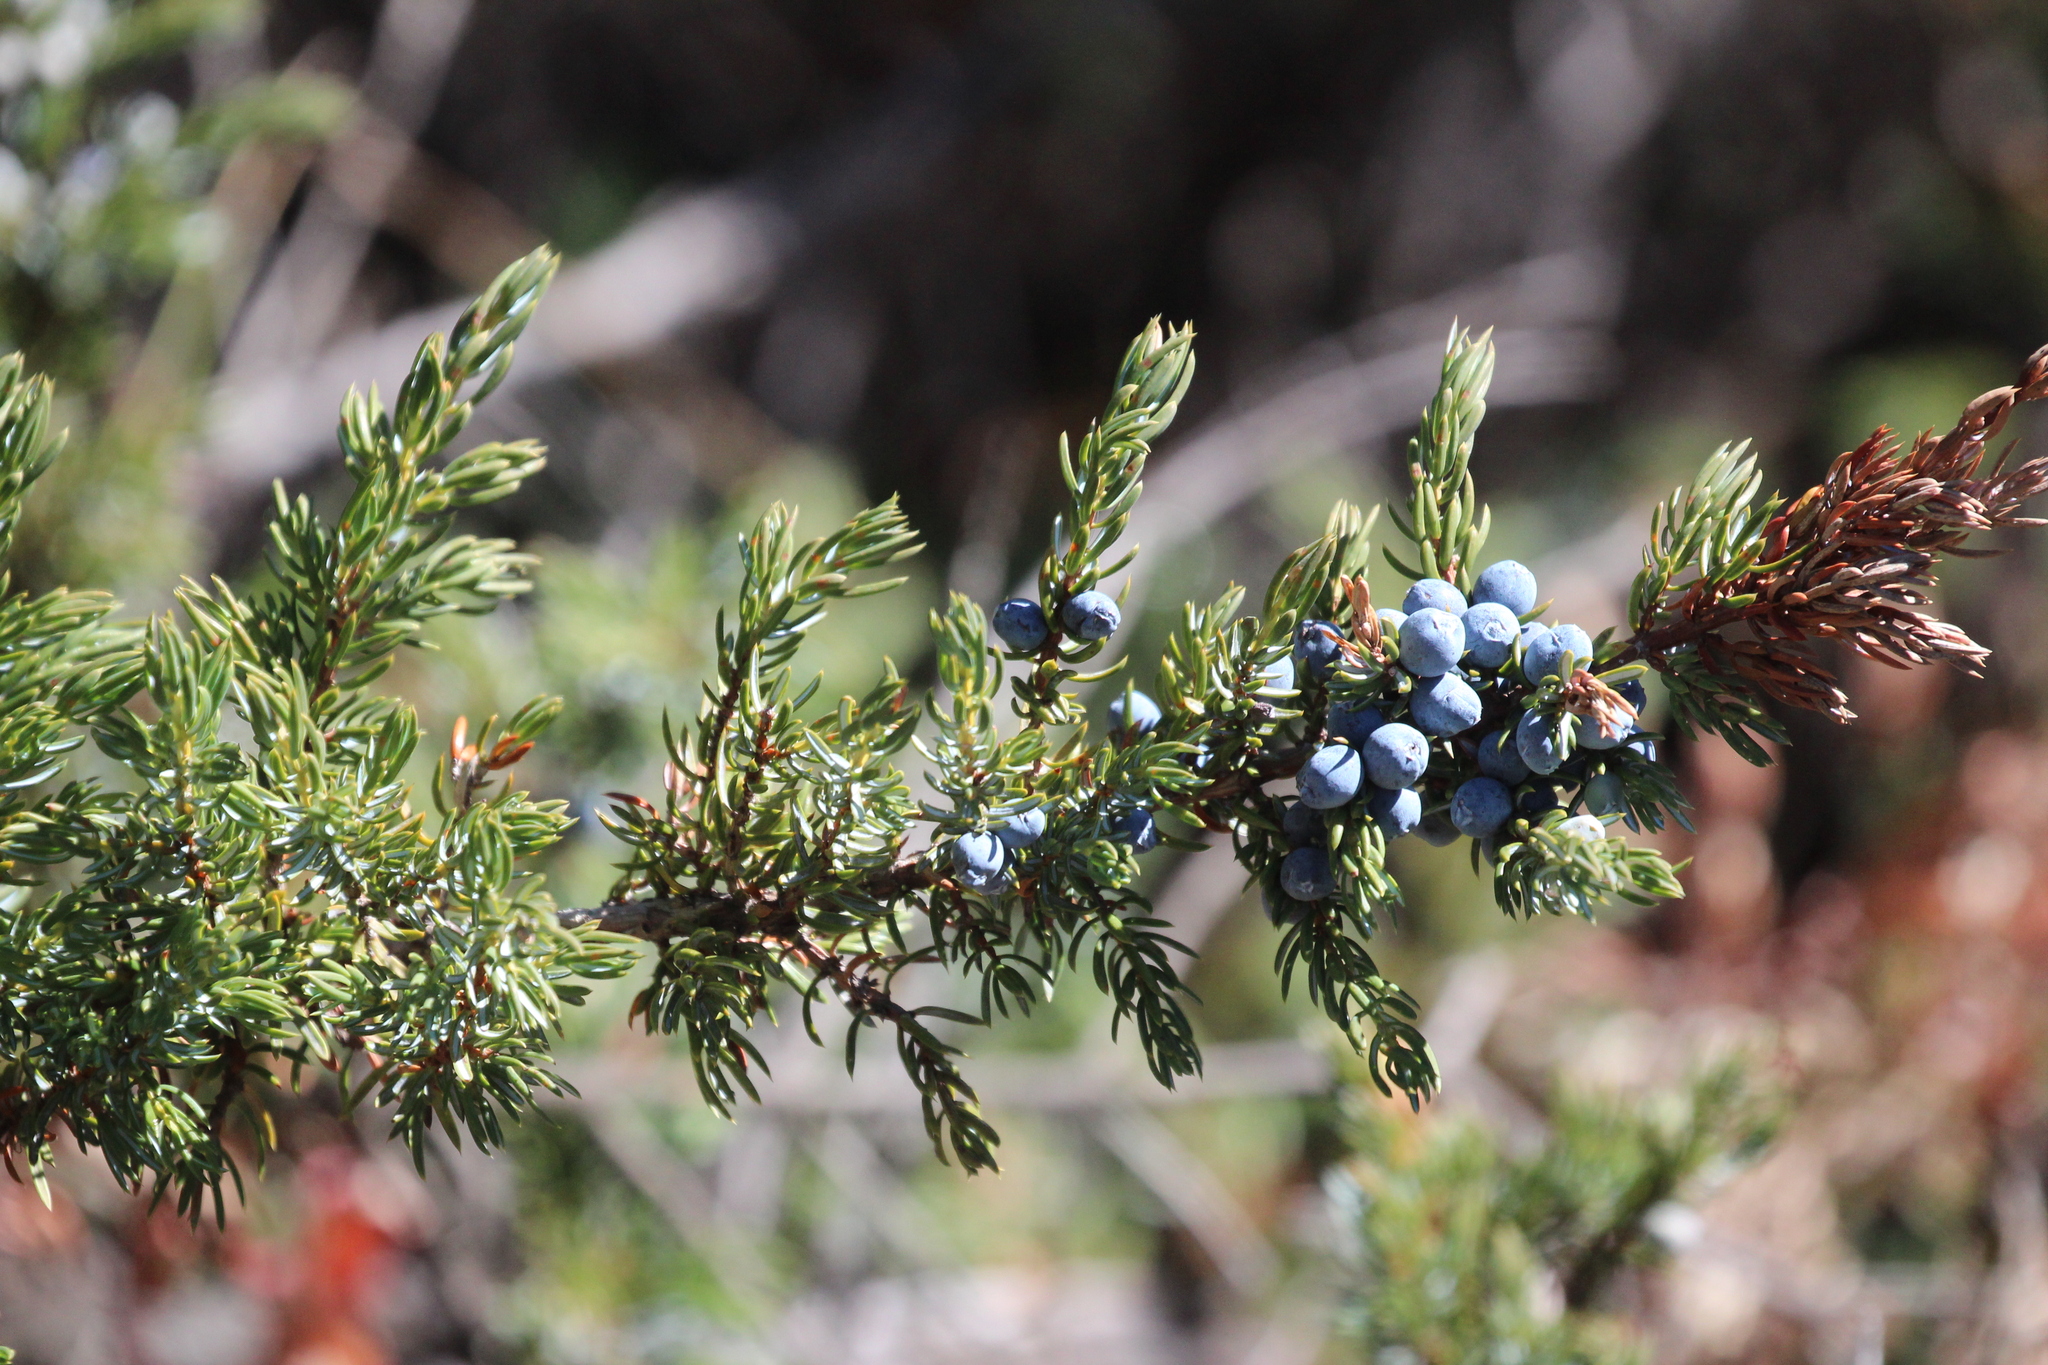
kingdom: Plantae
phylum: Tracheophyta
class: Pinopsida
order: Pinales
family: Cupressaceae
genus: Juniperus
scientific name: Juniperus communis
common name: Common juniper
